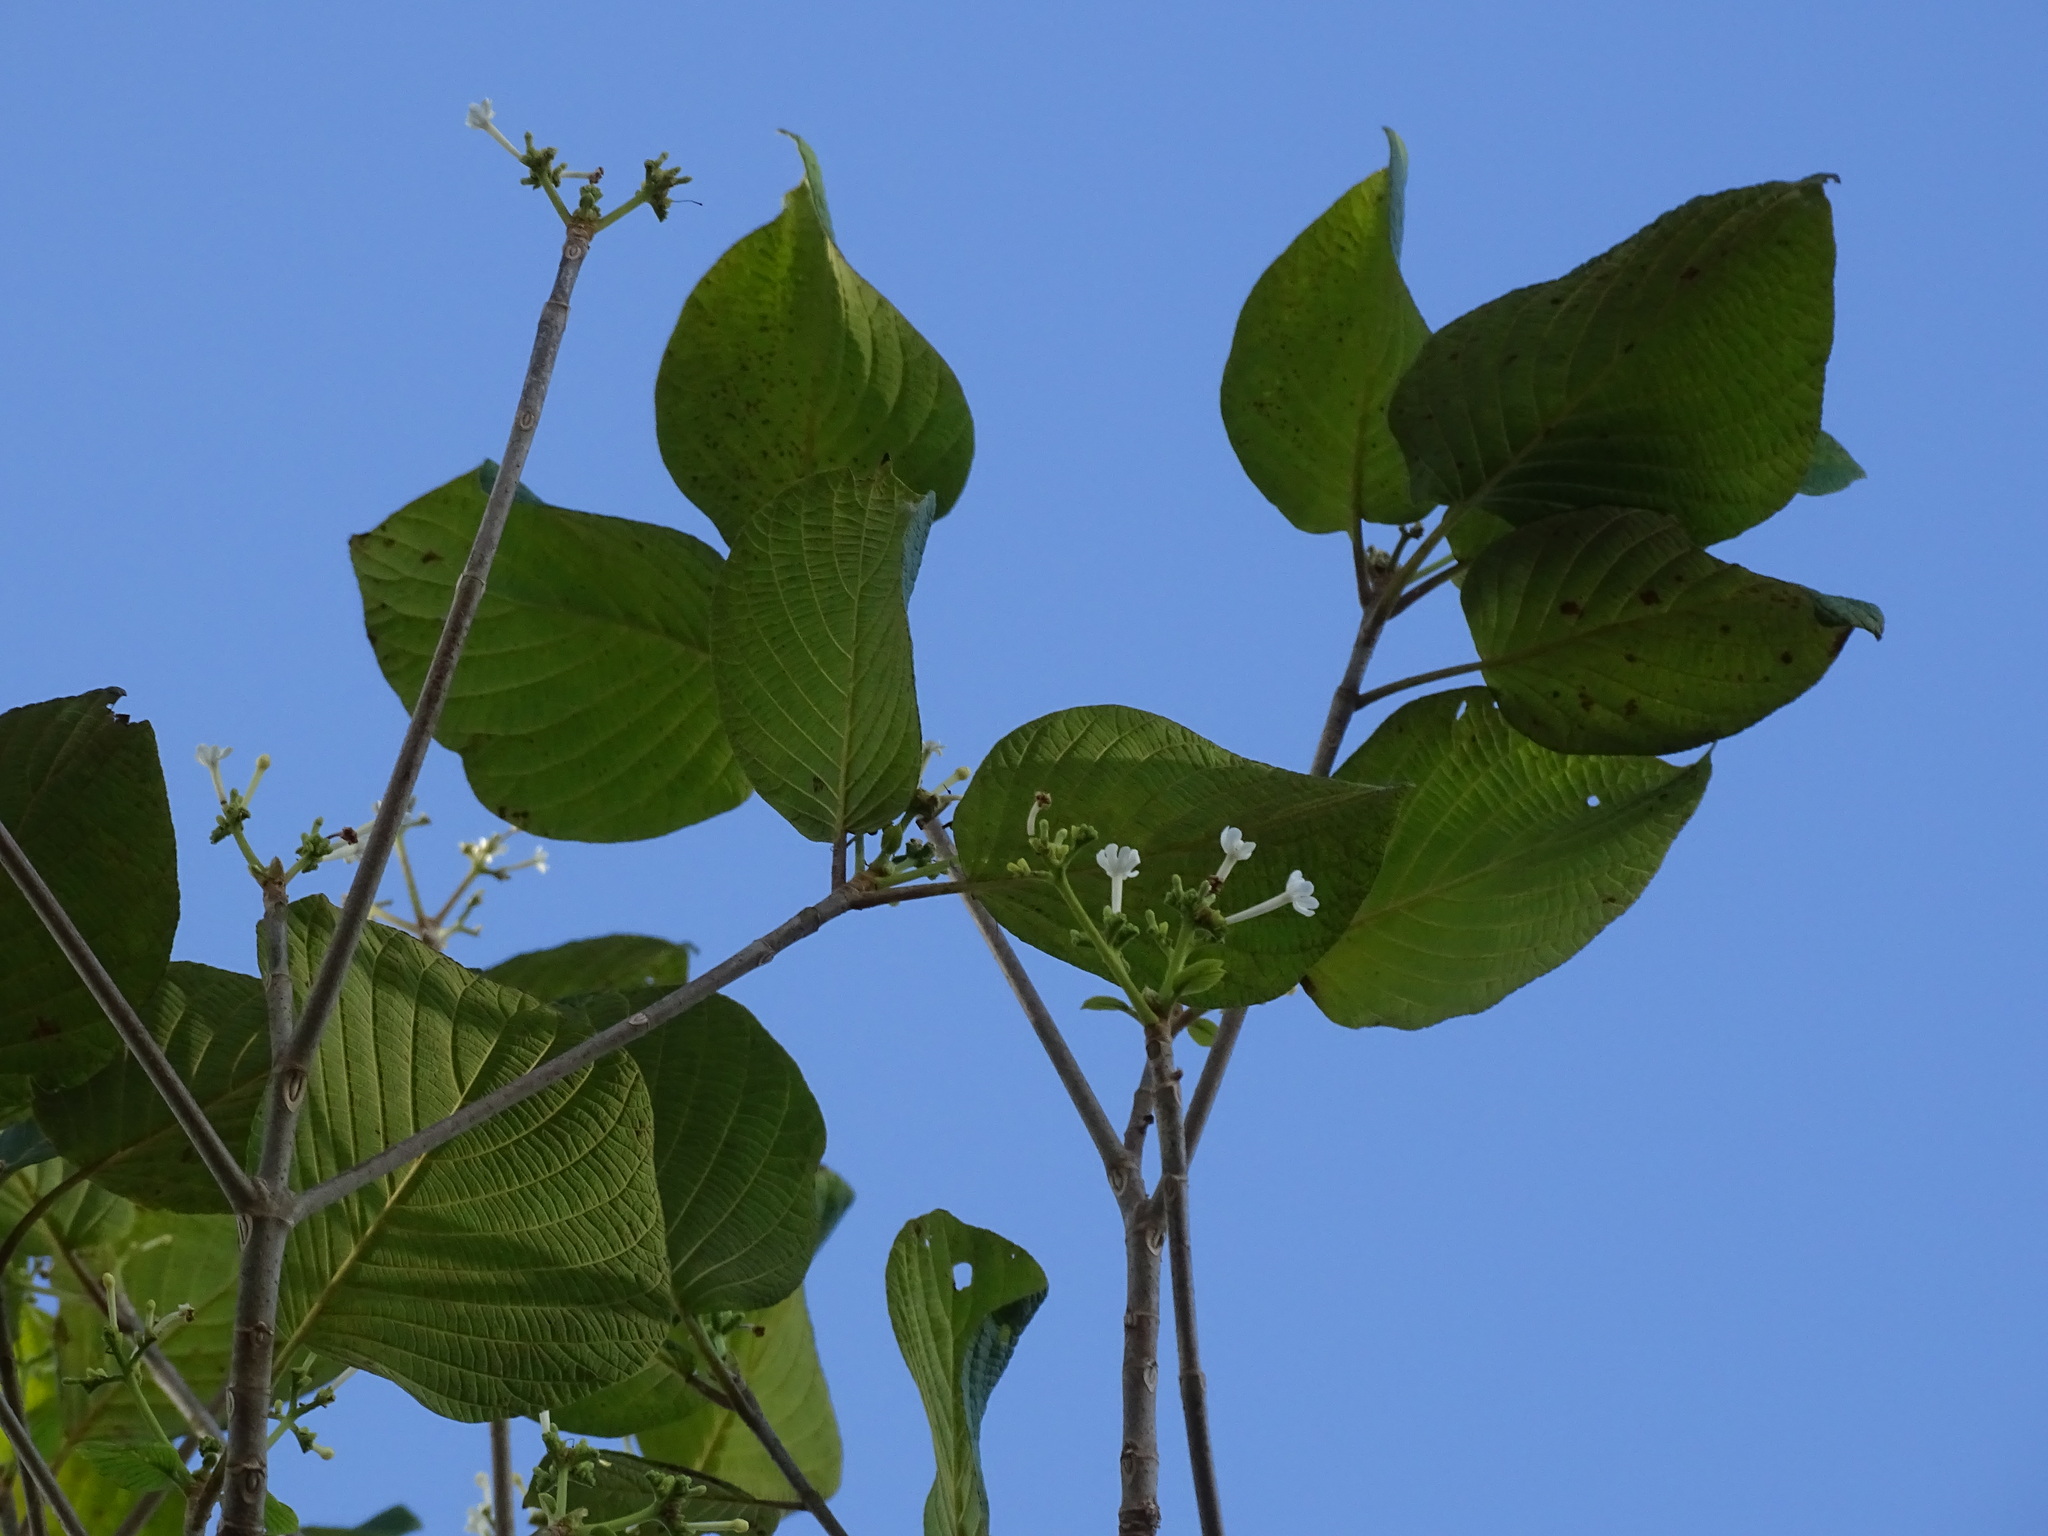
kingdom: Plantae
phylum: Tracheophyta
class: Magnoliopsida
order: Gentianales
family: Rubiaceae
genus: Guettarda
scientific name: Guettarda combsii
